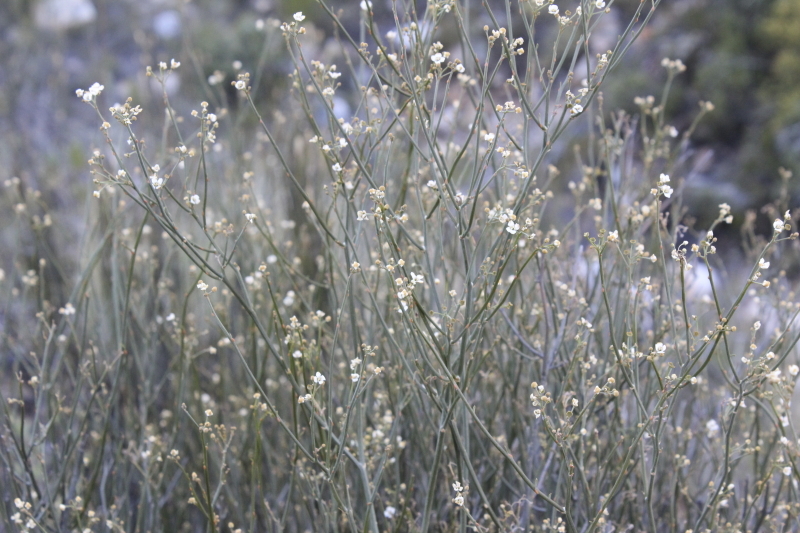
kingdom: Plantae
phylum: Tracheophyta
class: Magnoliopsida
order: Solanales
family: Montiniaceae
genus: Montinia
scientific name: Montinia caryophyllacea
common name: Wild clove-bush
